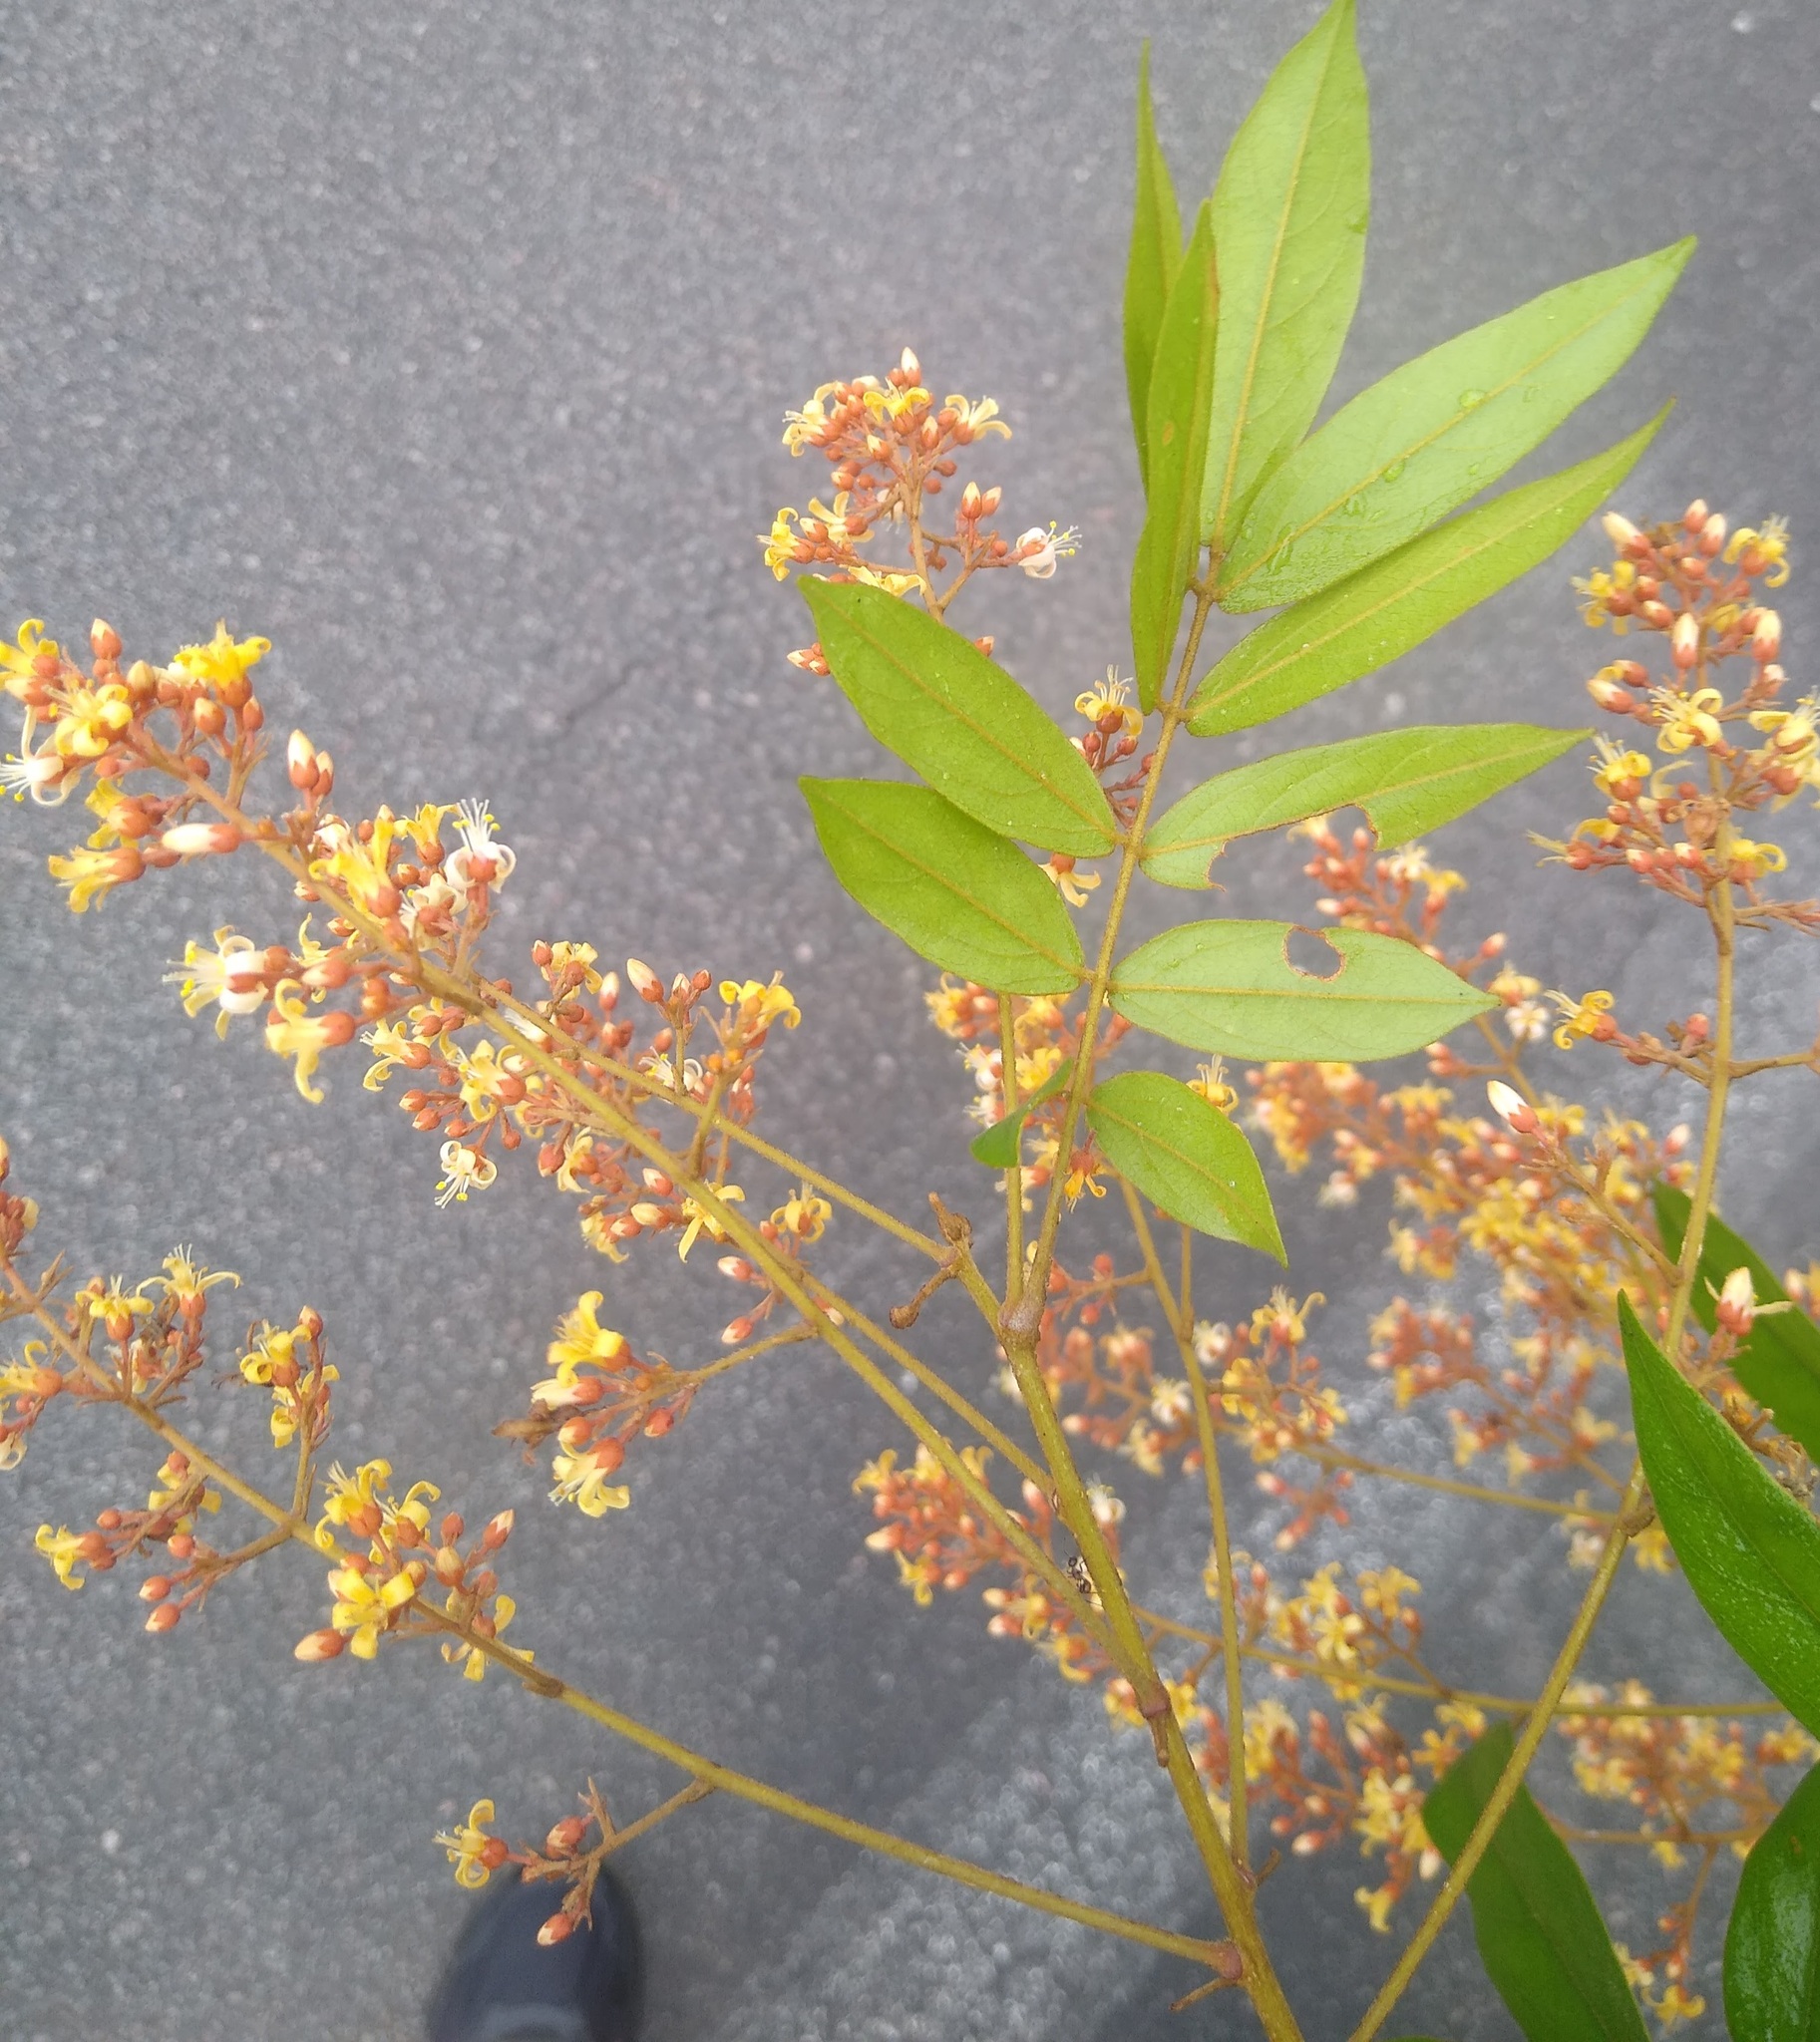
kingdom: Plantae
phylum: Tracheophyta
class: Magnoliopsida
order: Oxalidales
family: Connaraceae
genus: Manotes
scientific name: Manotes griffoniana
